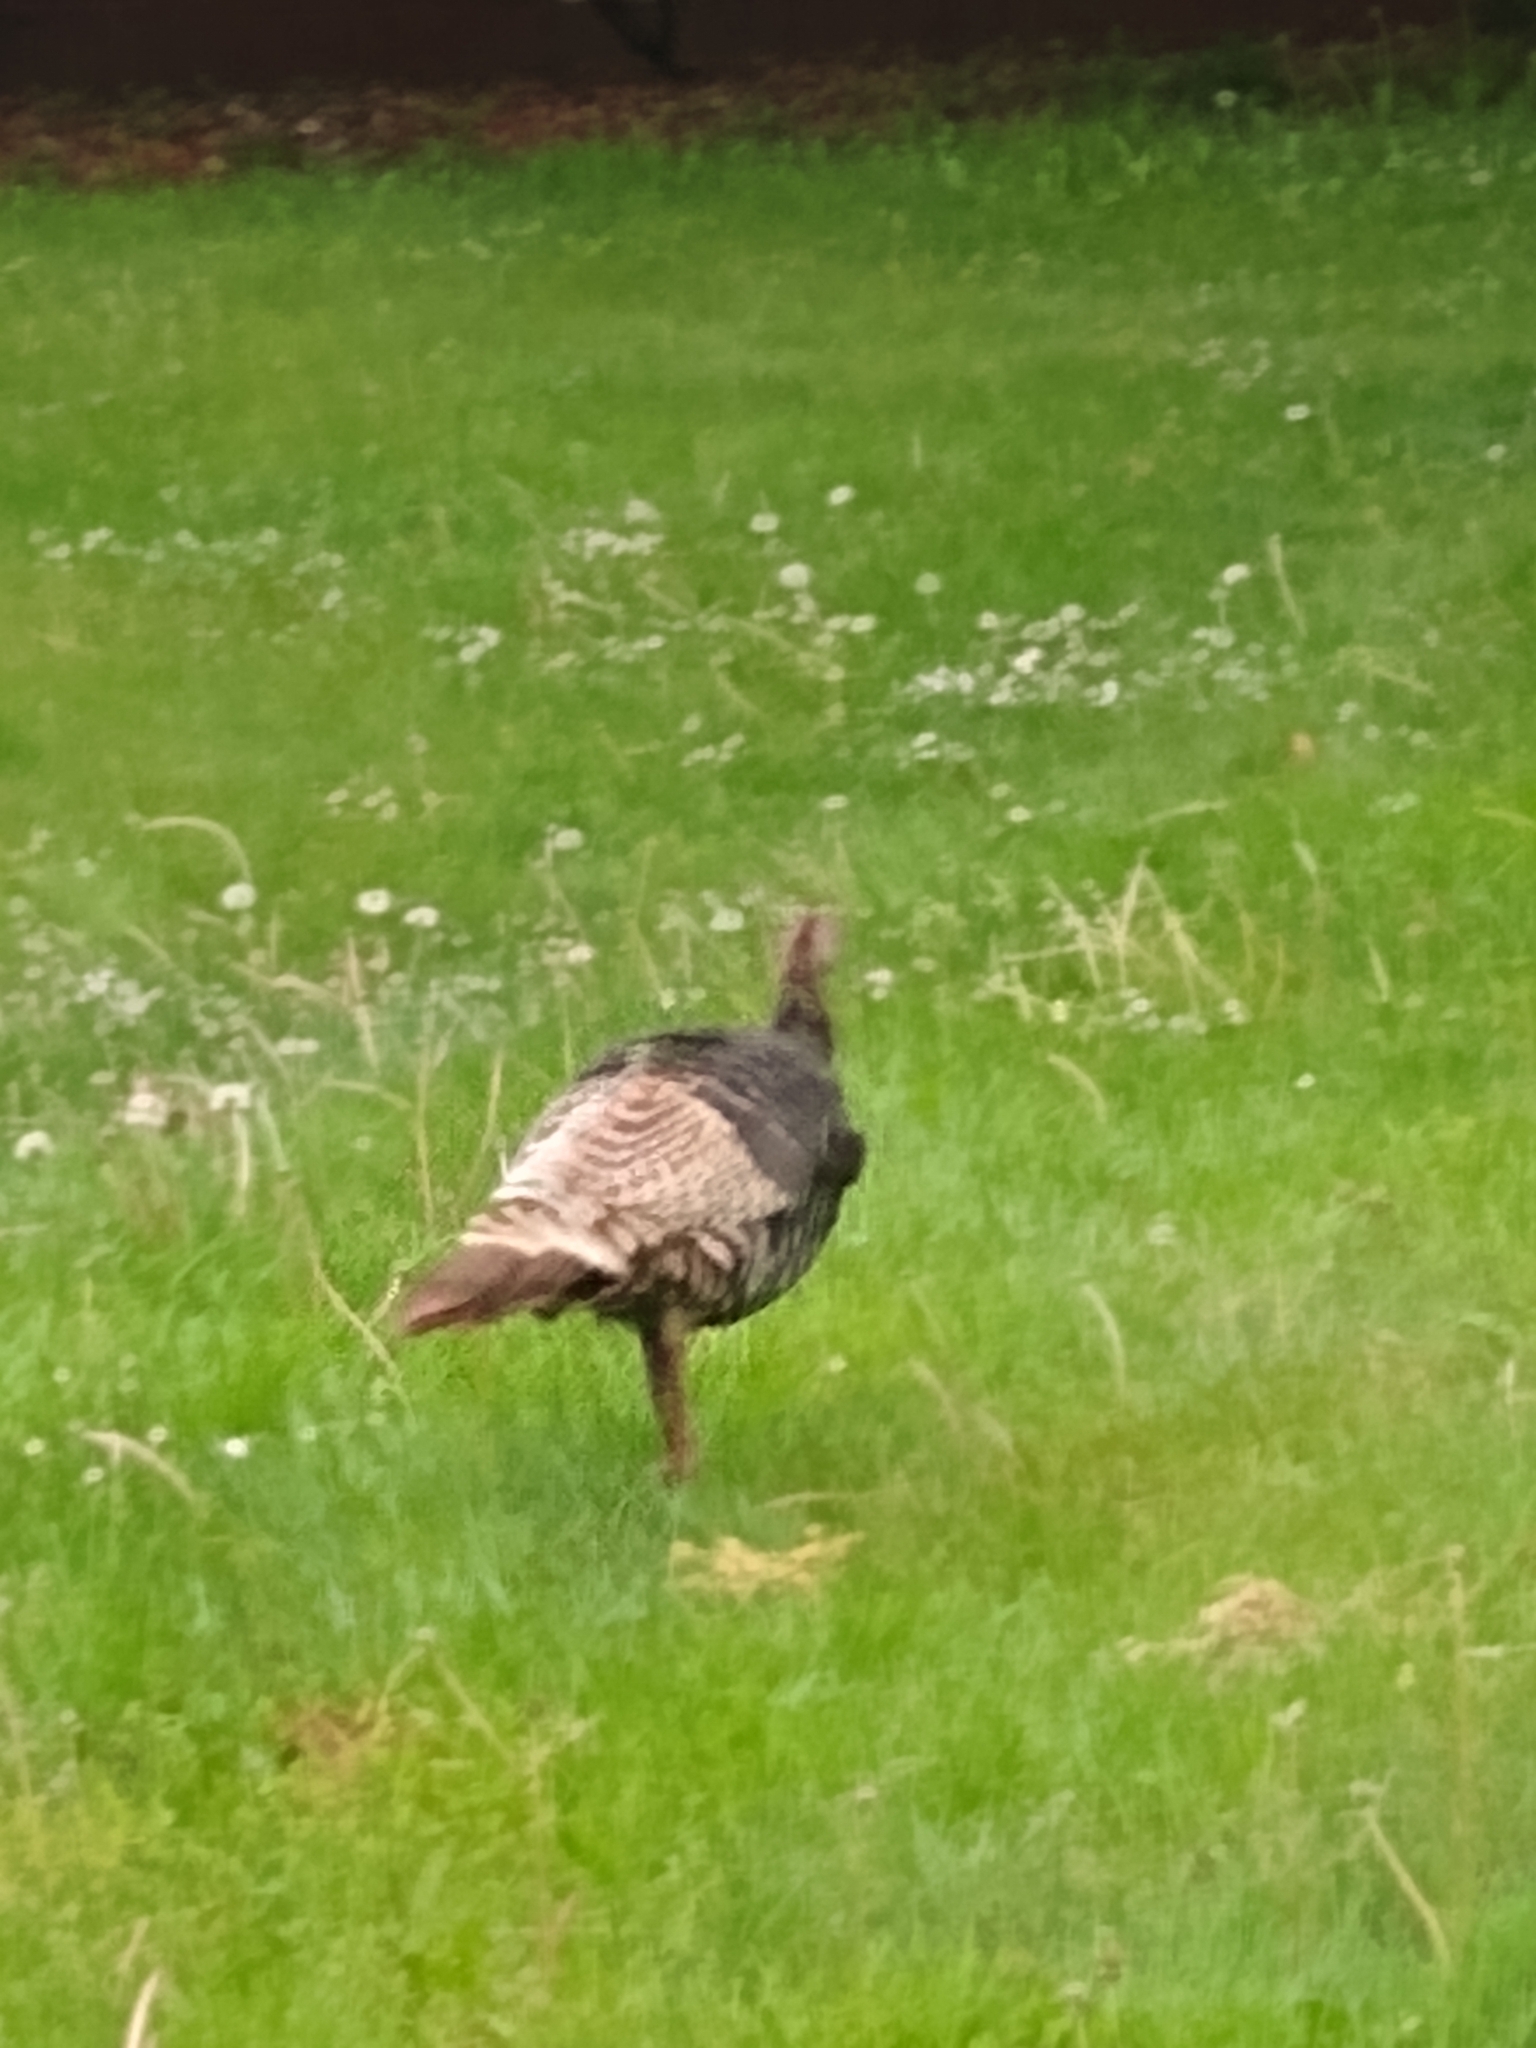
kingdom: Animalia
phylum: Chordata
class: Aves
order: Galliformes
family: Phasianidae
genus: Meleagris
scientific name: Meleagris gallopavo
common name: Wild turkey
